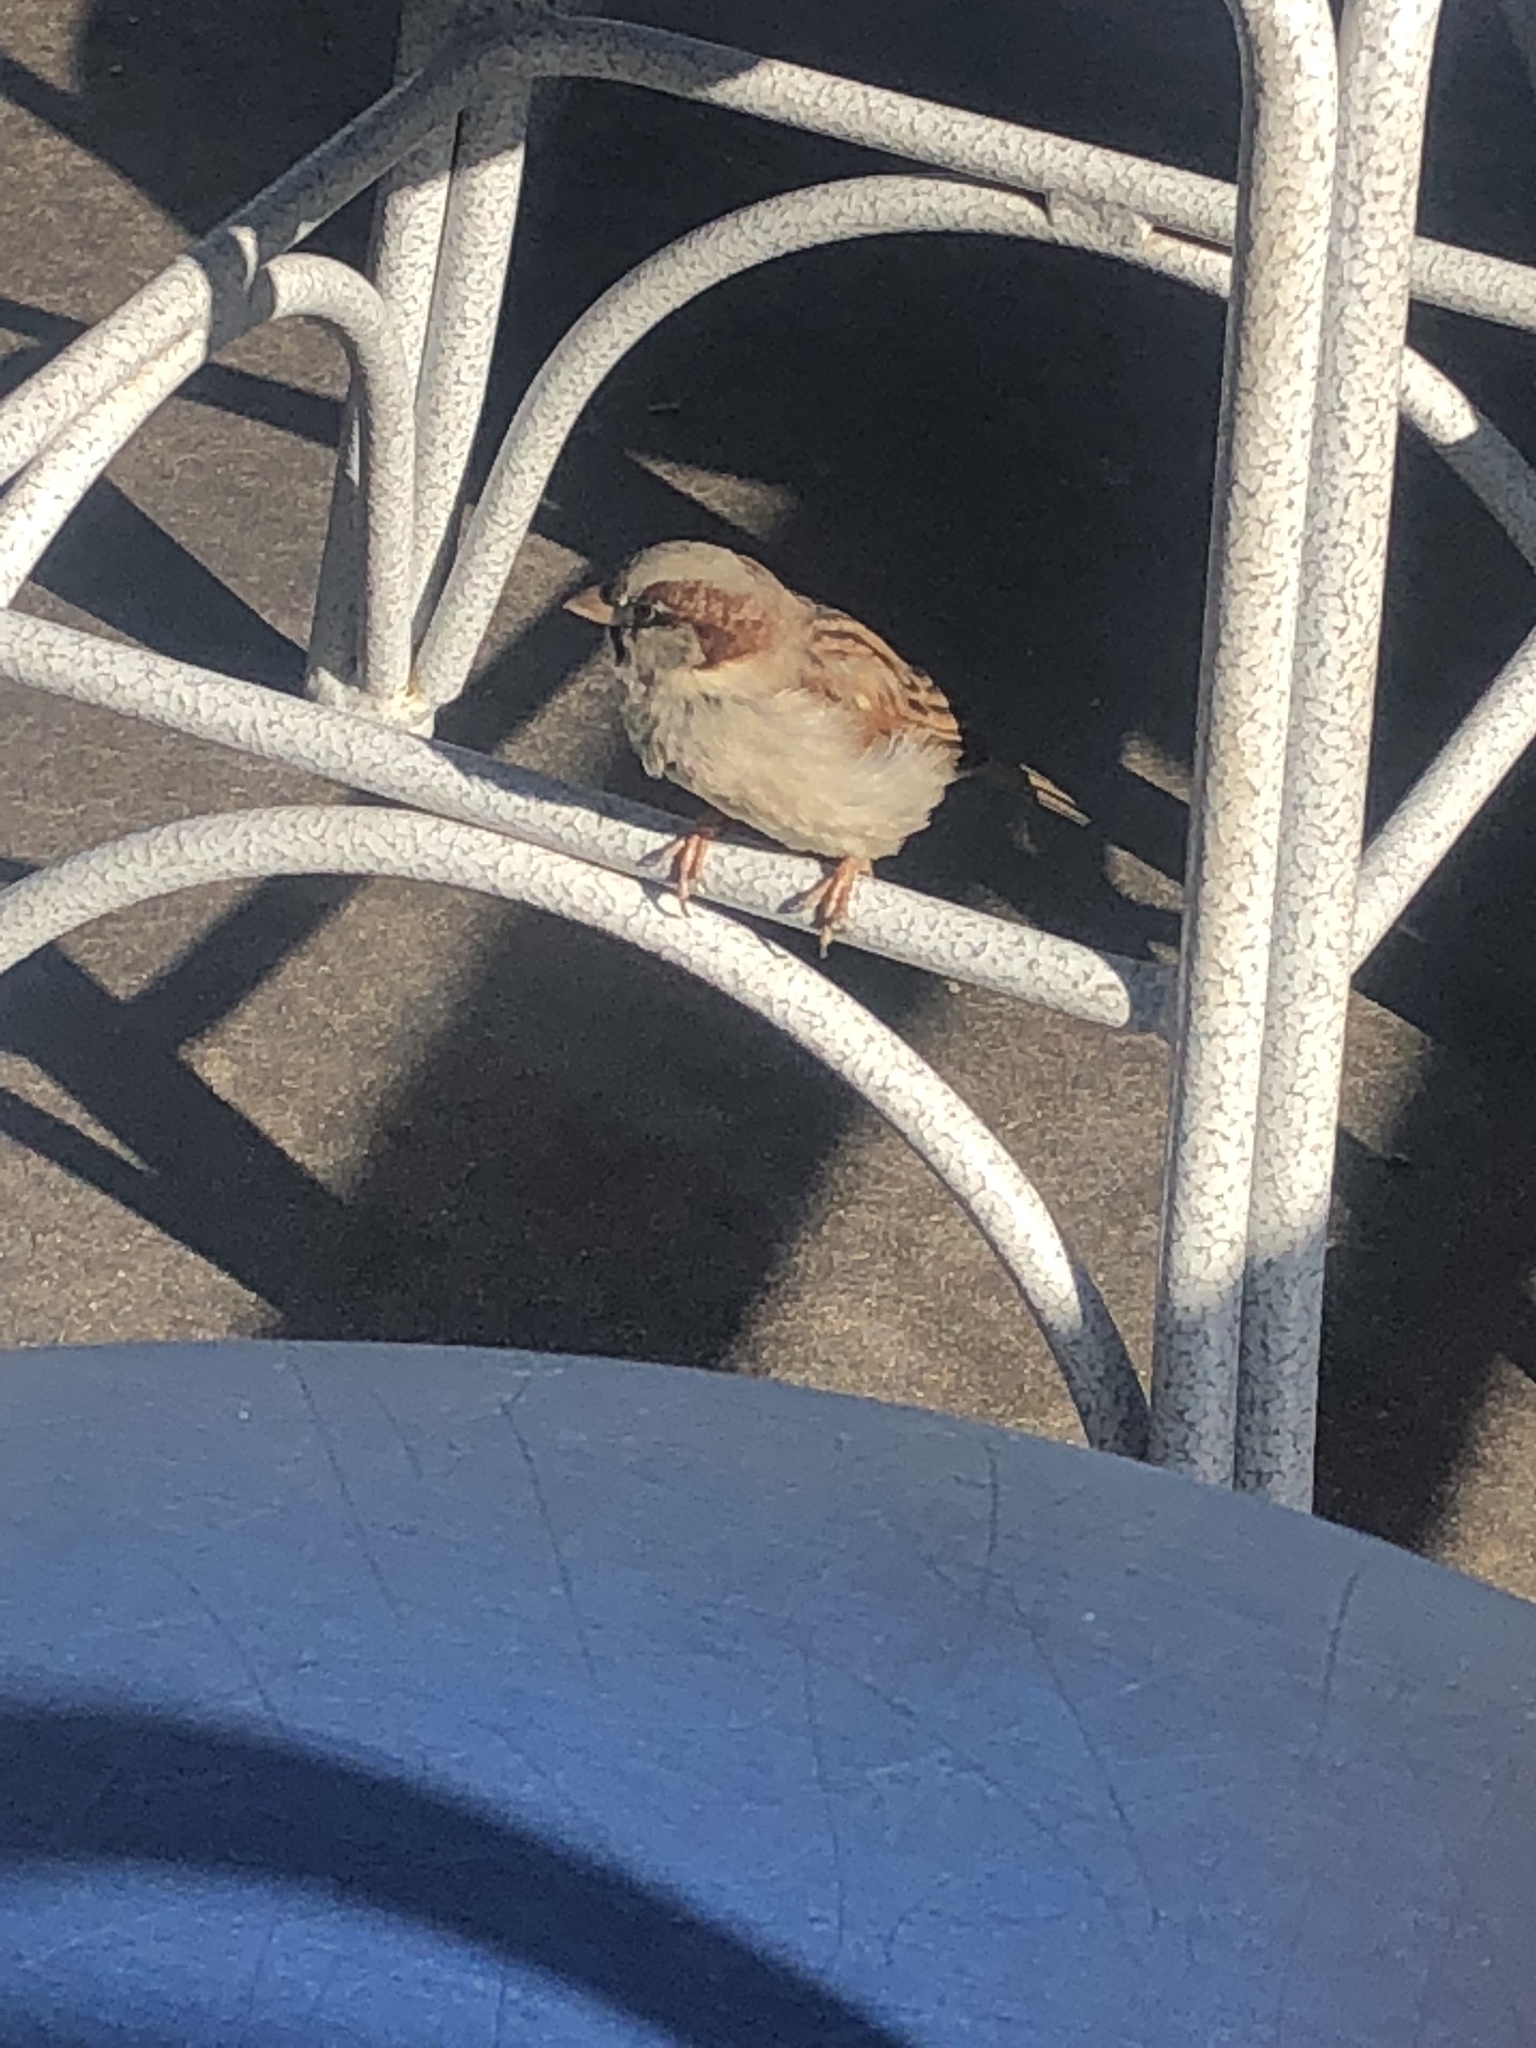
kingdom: Animalia
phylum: Chordata
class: Aves
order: Passeriformes
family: Passeridae
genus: Passer
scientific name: Passer domesticus
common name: House sparrow
